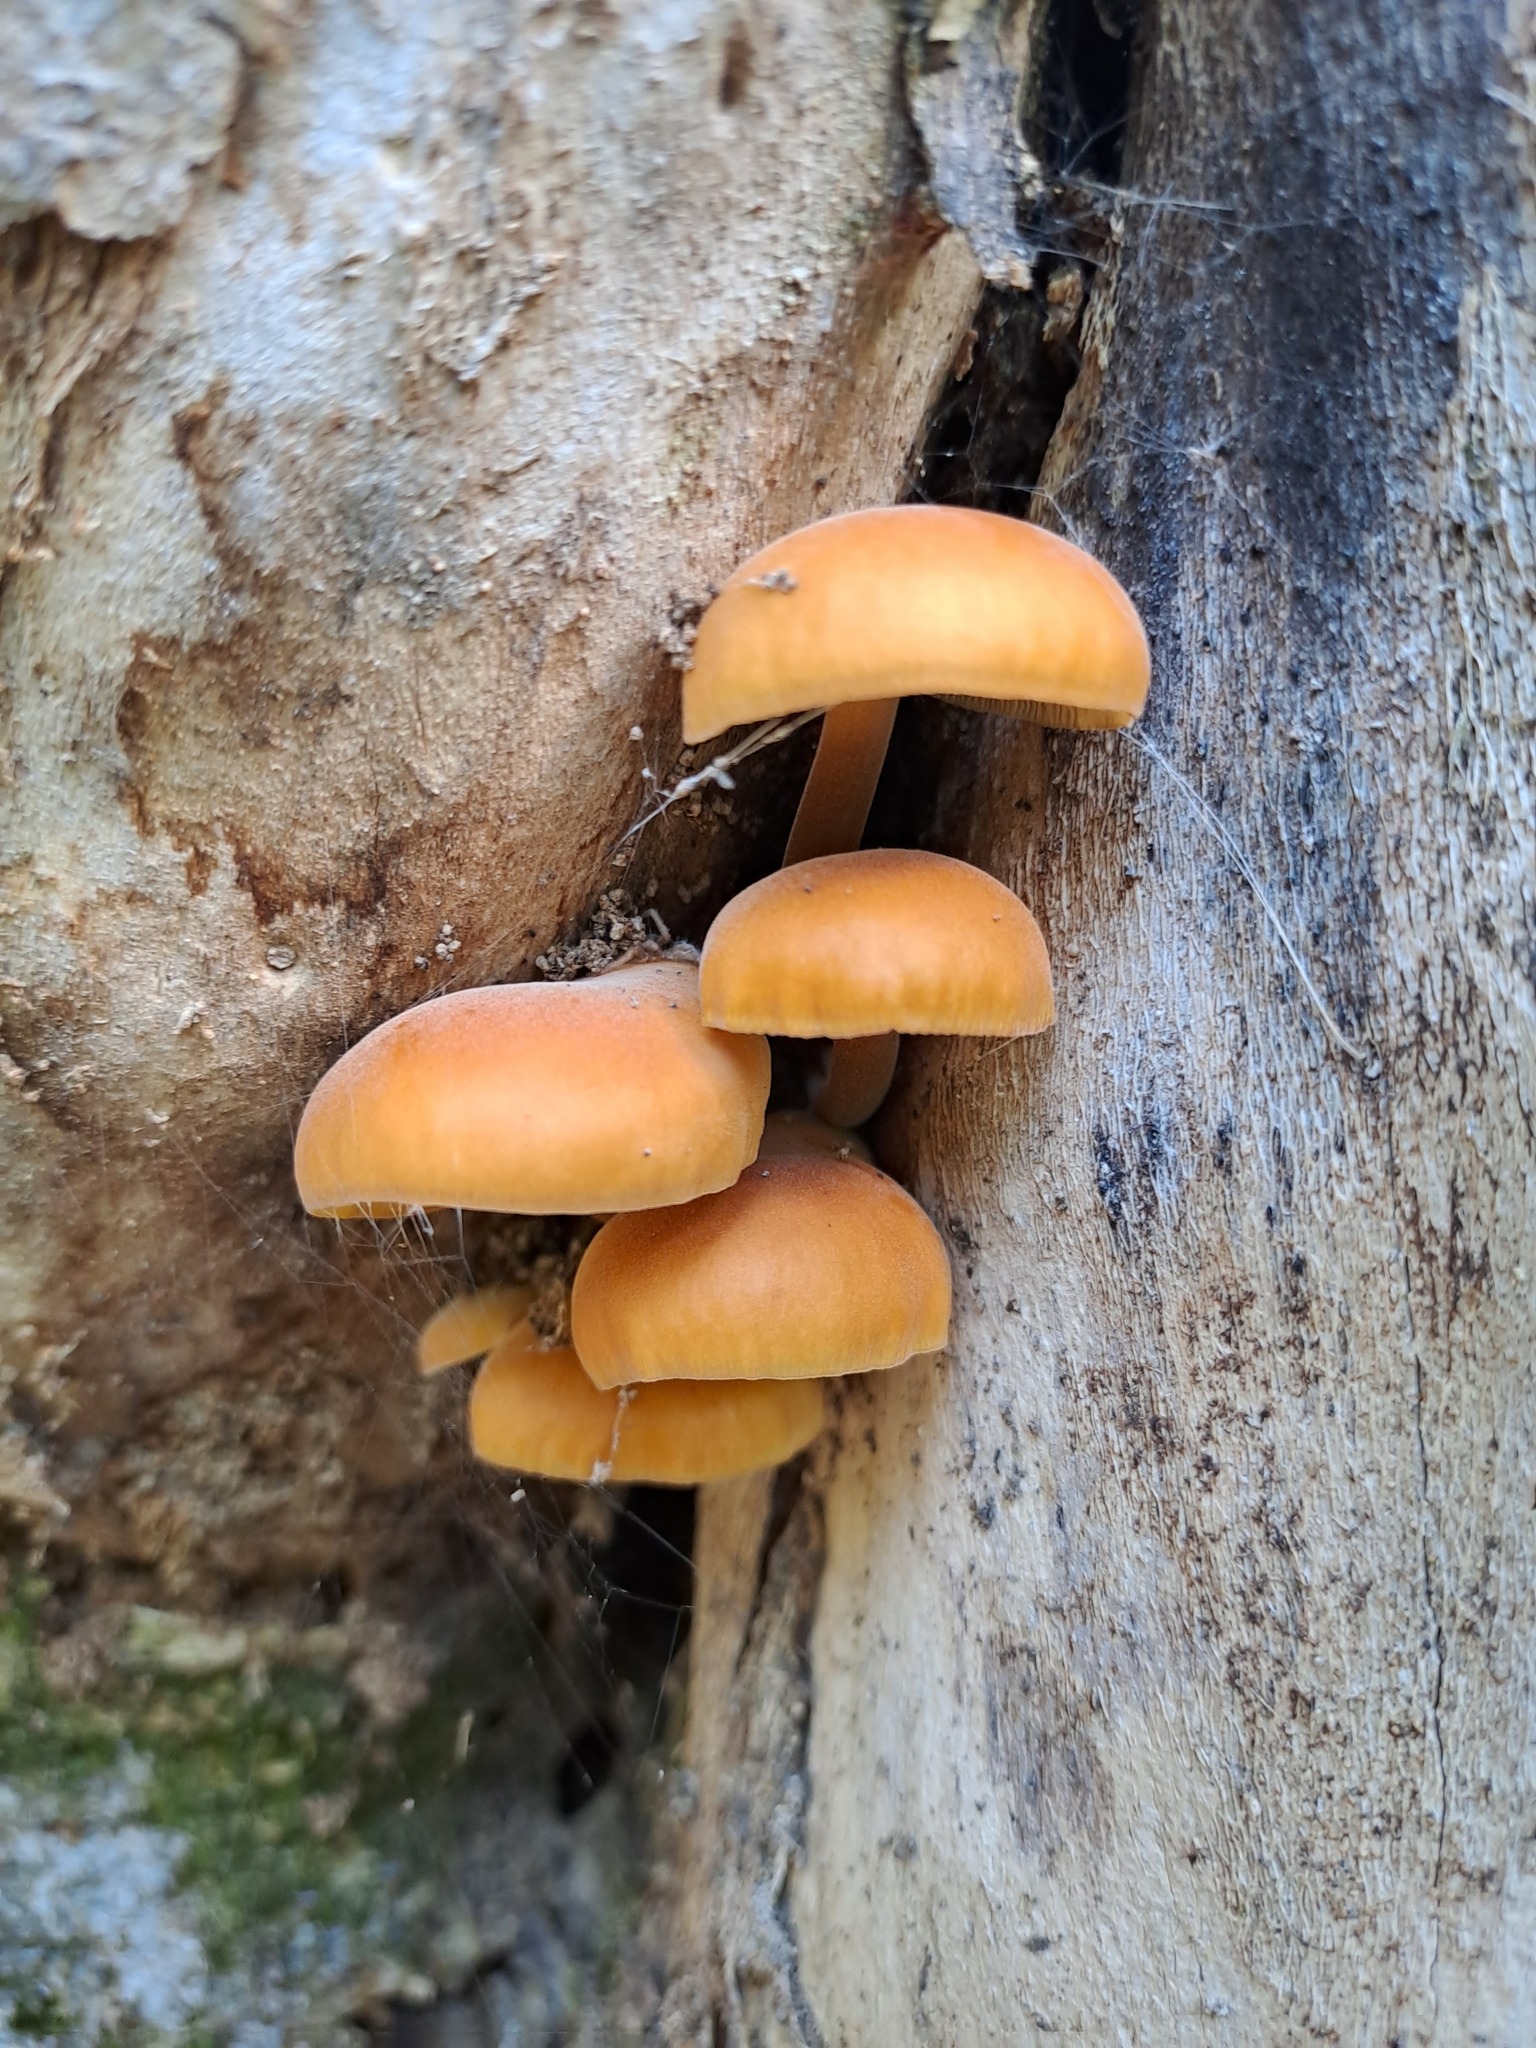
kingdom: Fungi
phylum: Basidiomycota
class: Agaricomycetes
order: Agaricales
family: Physalacriaceae
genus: Flammulina
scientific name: Flammulina velutipes
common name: Velvet shank
